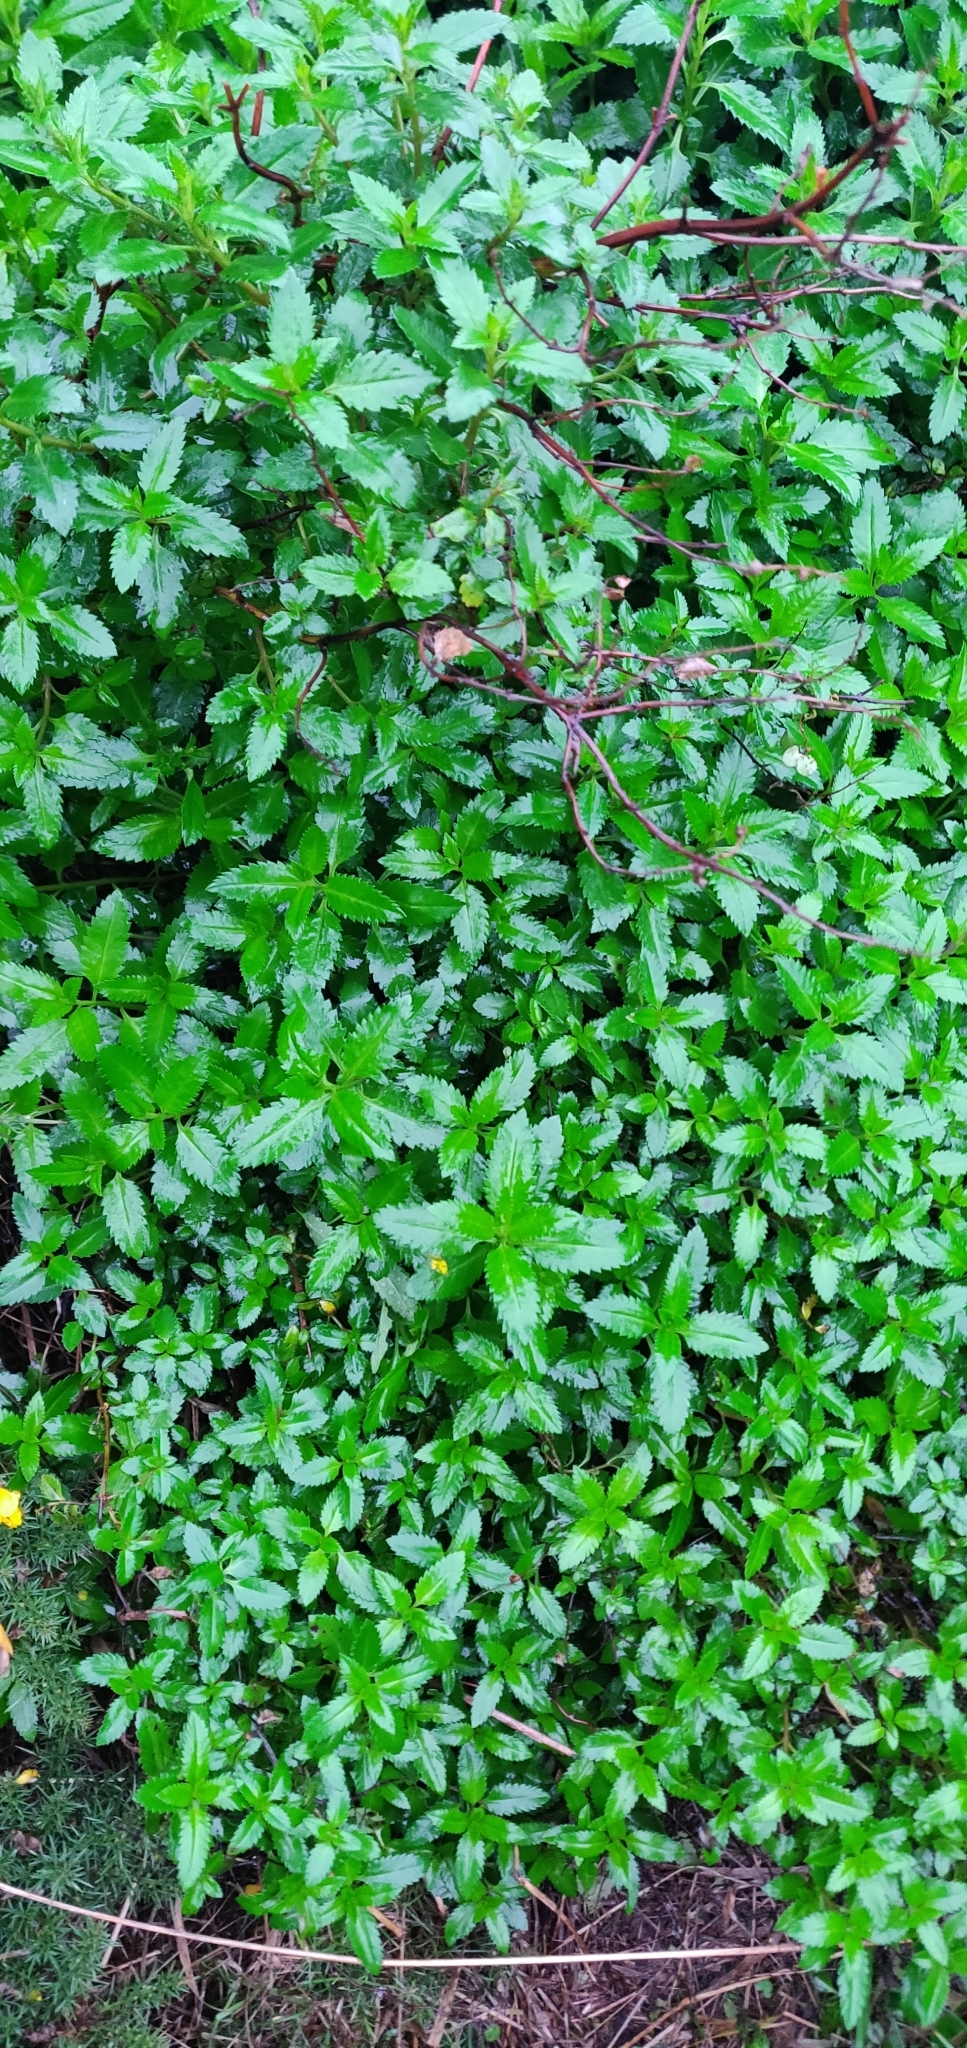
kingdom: Plantae
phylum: Tracheophyta
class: Magnoliopsida
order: Saxifragales
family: Haloragaceae
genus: Haloragis
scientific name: Haloragis erecta
